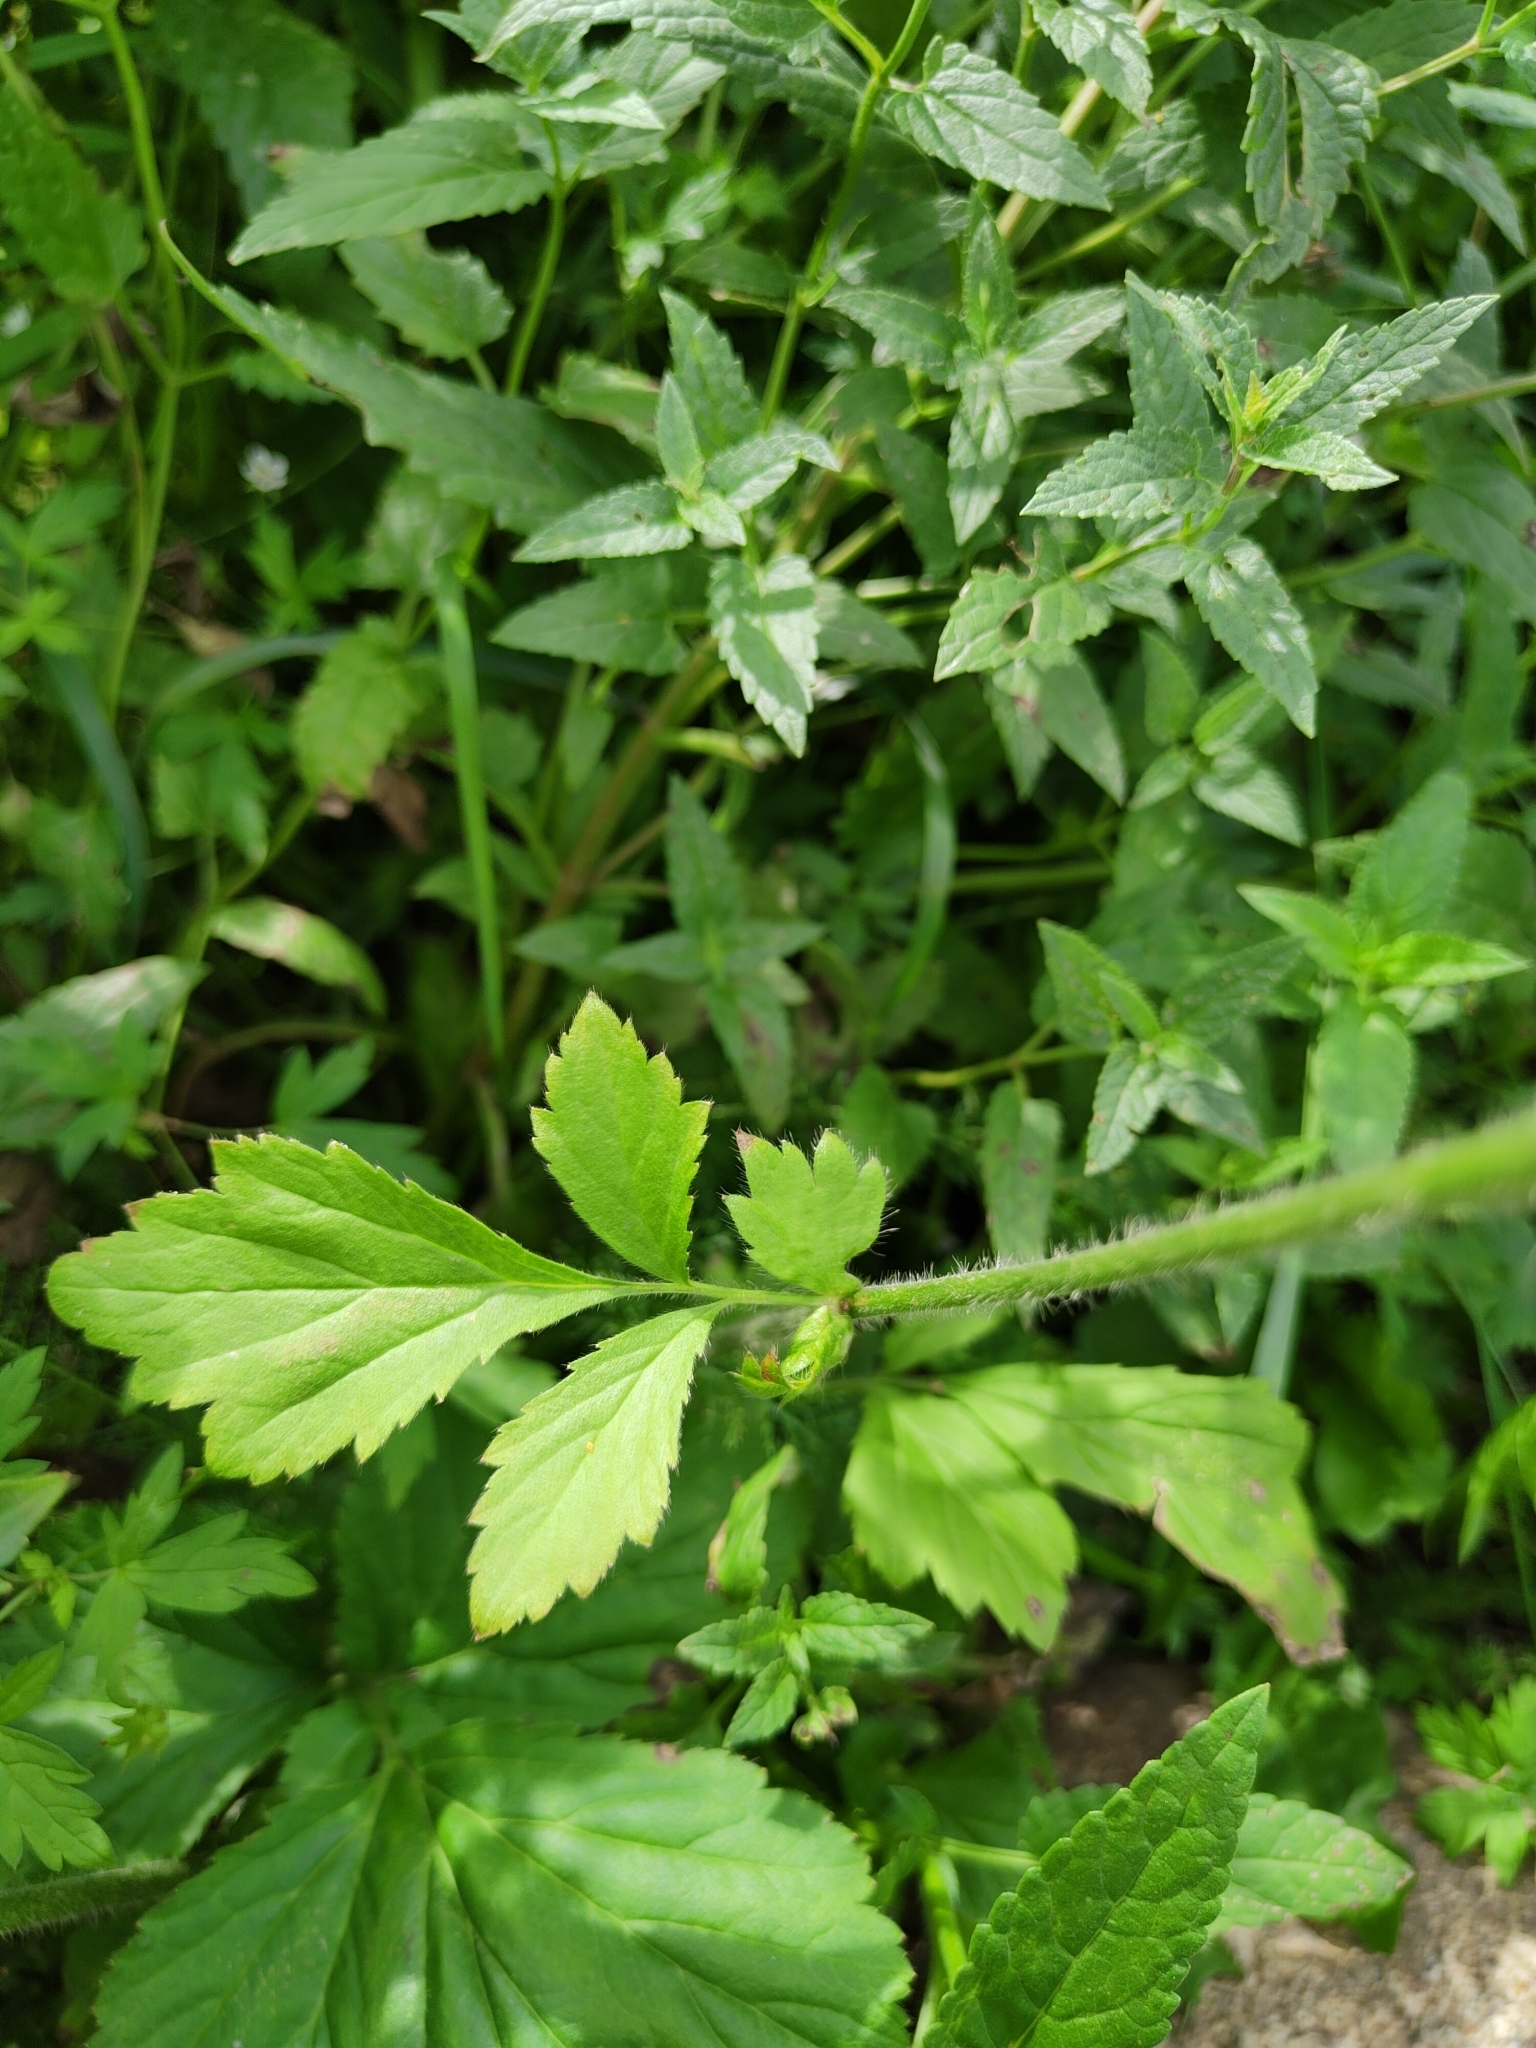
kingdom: Plantae
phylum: Tracheophyta
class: Magnoliopsida
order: Rosales
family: Rosaceae
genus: Geum
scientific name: Geum aleppicum
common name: Yellow avens
